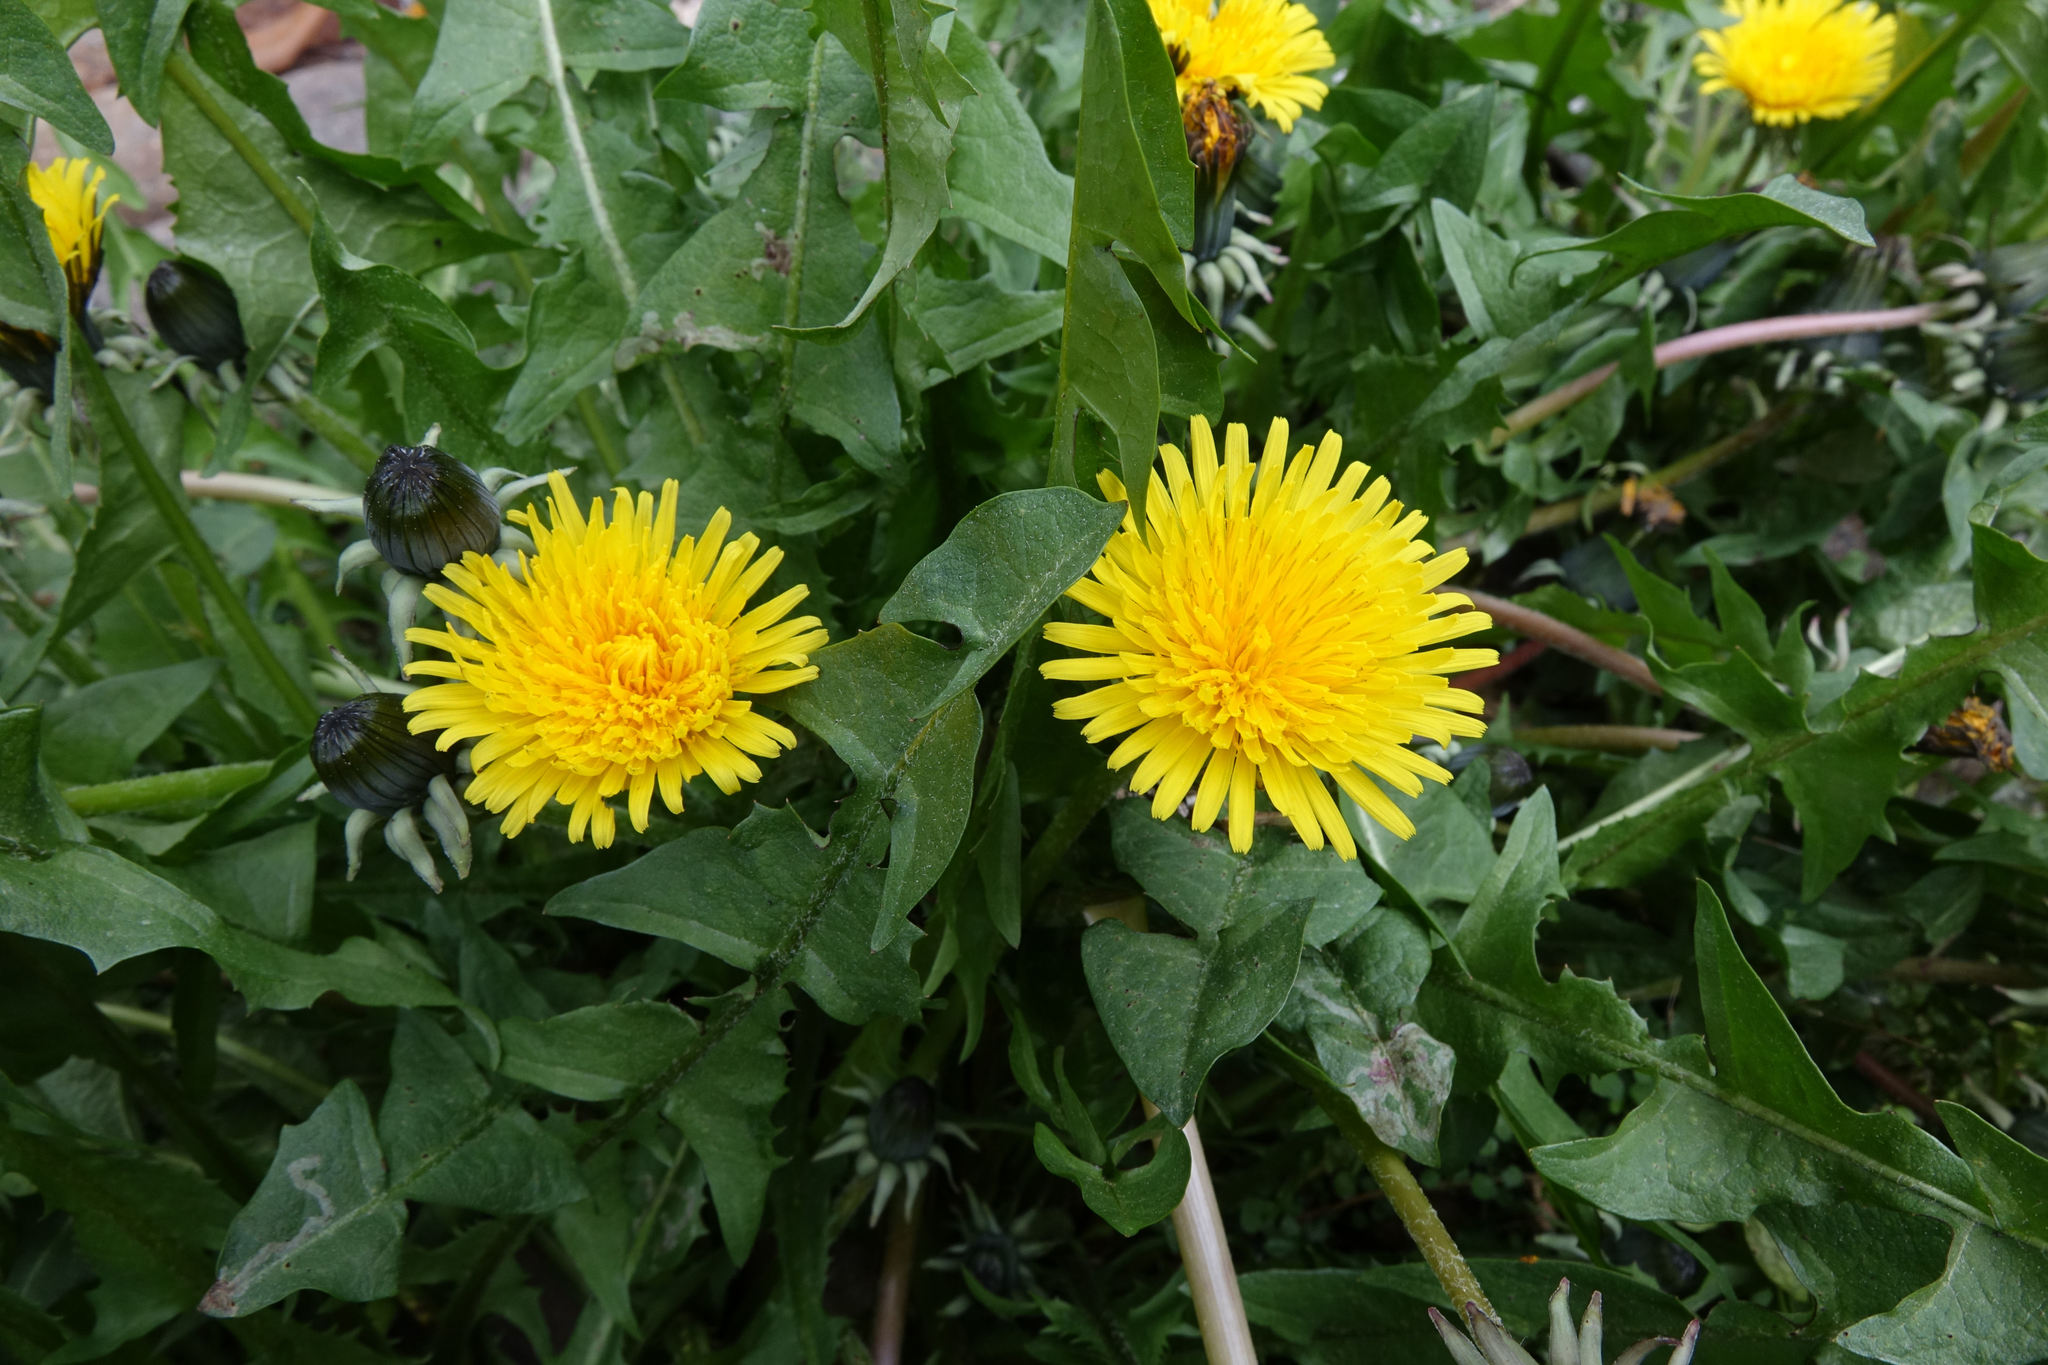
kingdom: Plantae
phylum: Tracheophyta
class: Magnoliopsida
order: Asterales
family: Asteraceae
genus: Taraxacum
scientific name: Taraxacum officinale
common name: Common dandelion
